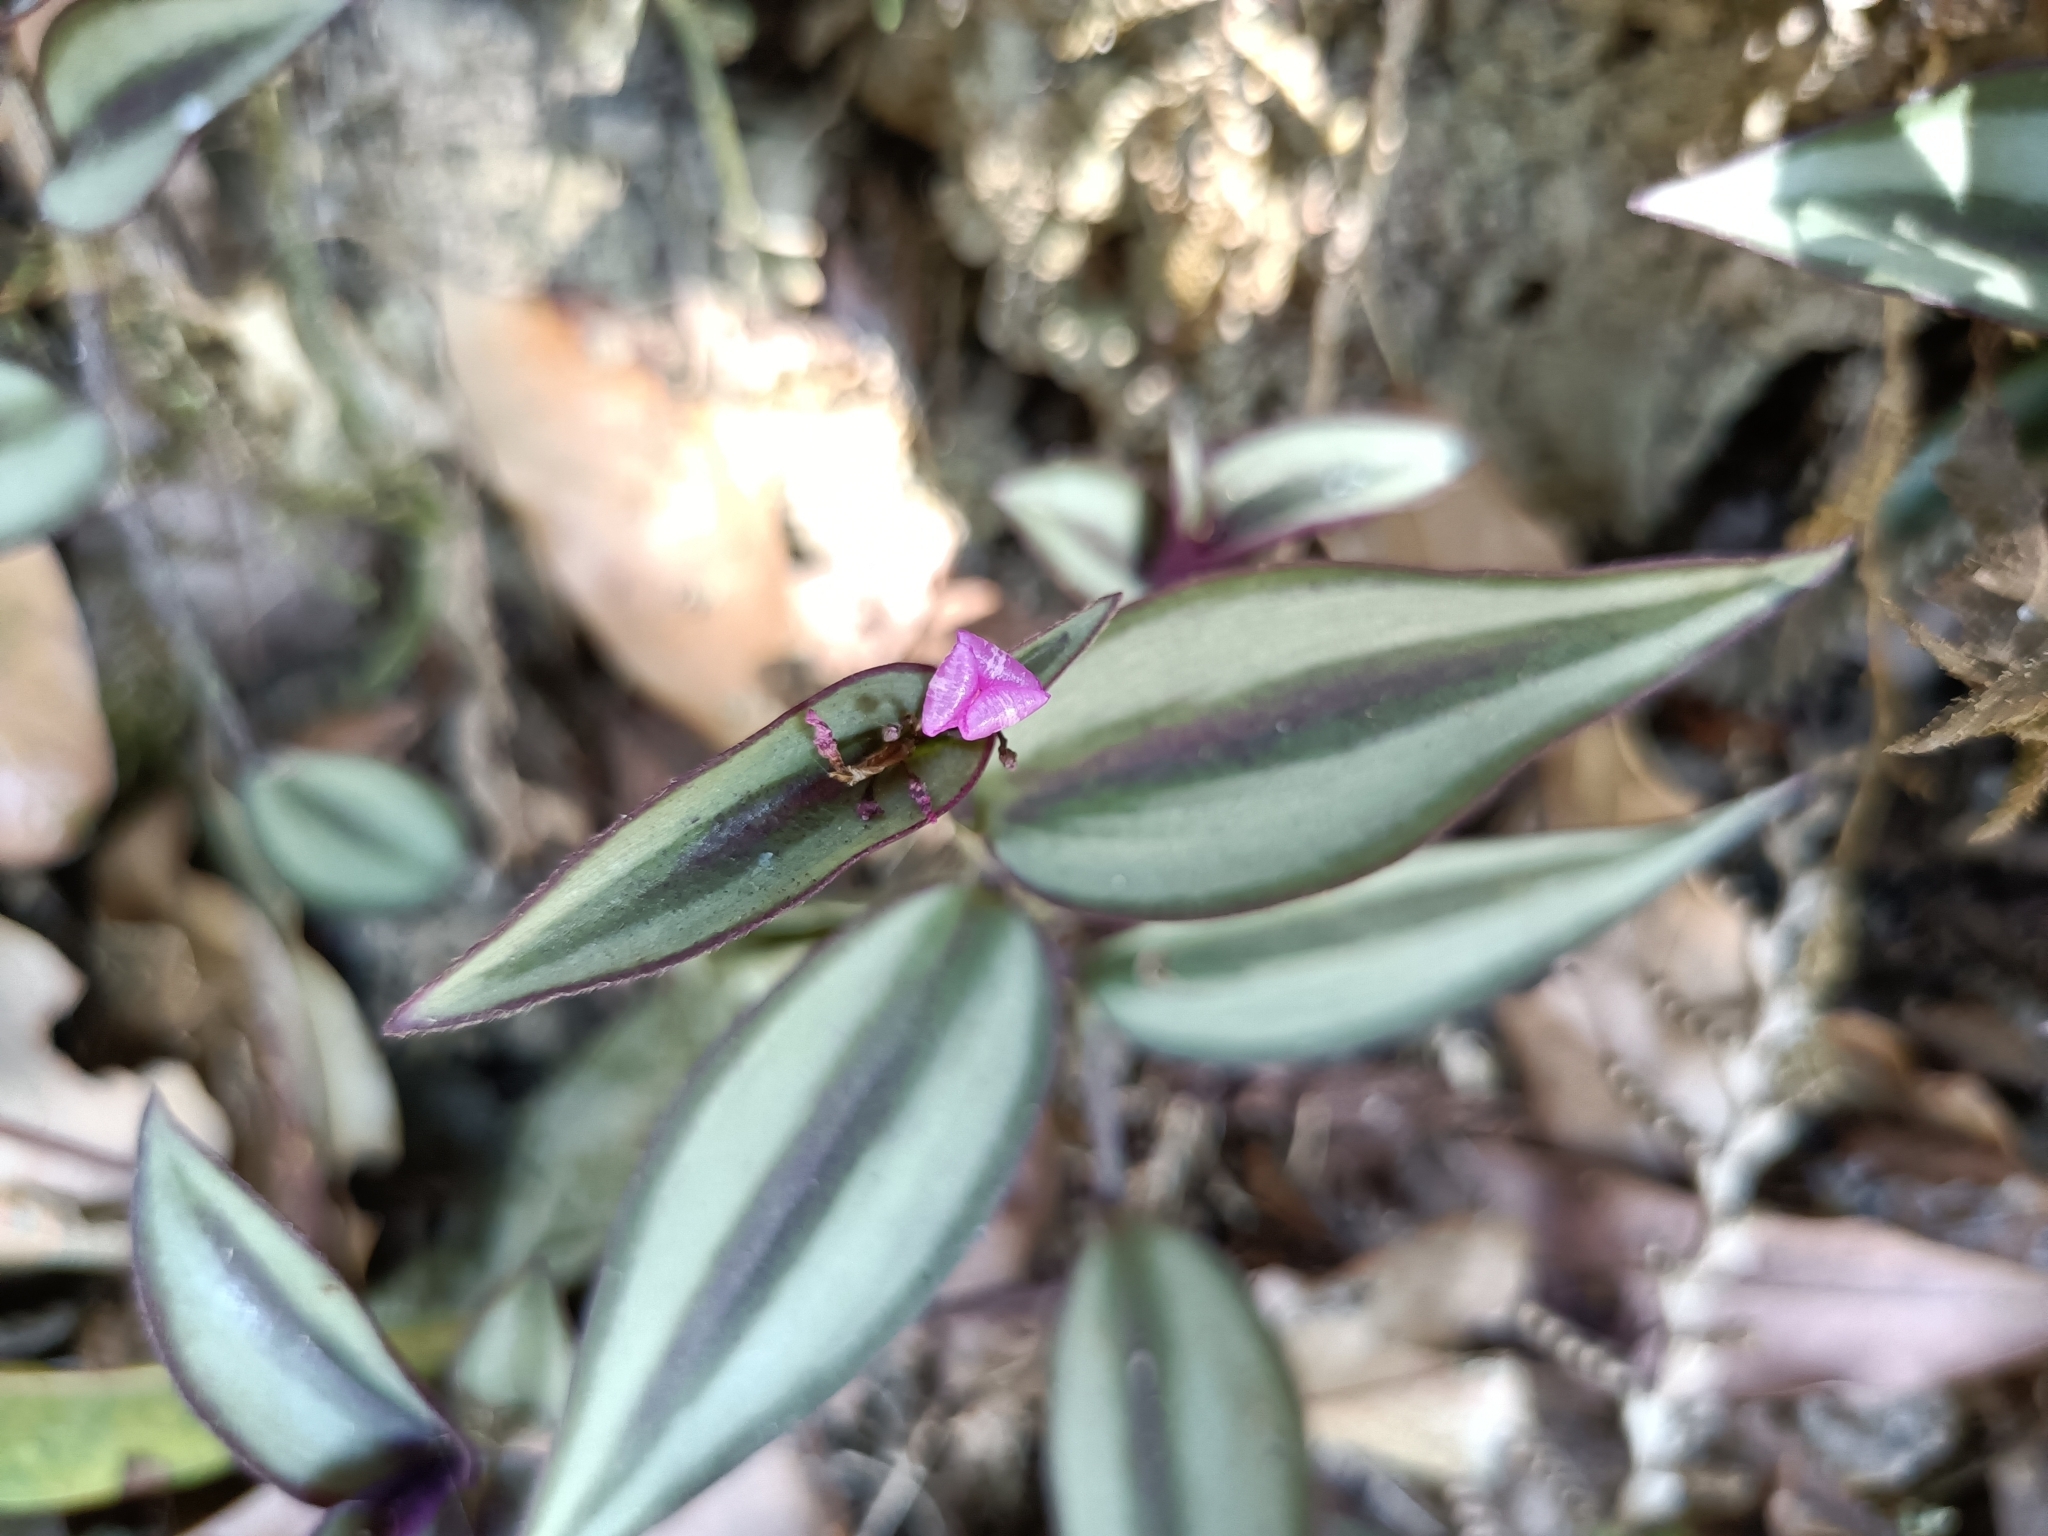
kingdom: Plantae
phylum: Tracheophyta
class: Liliopsida
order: Commelinales
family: Commelinaceae
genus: Tradescantia
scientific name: Tradescantia zebrina
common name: Inchplant
